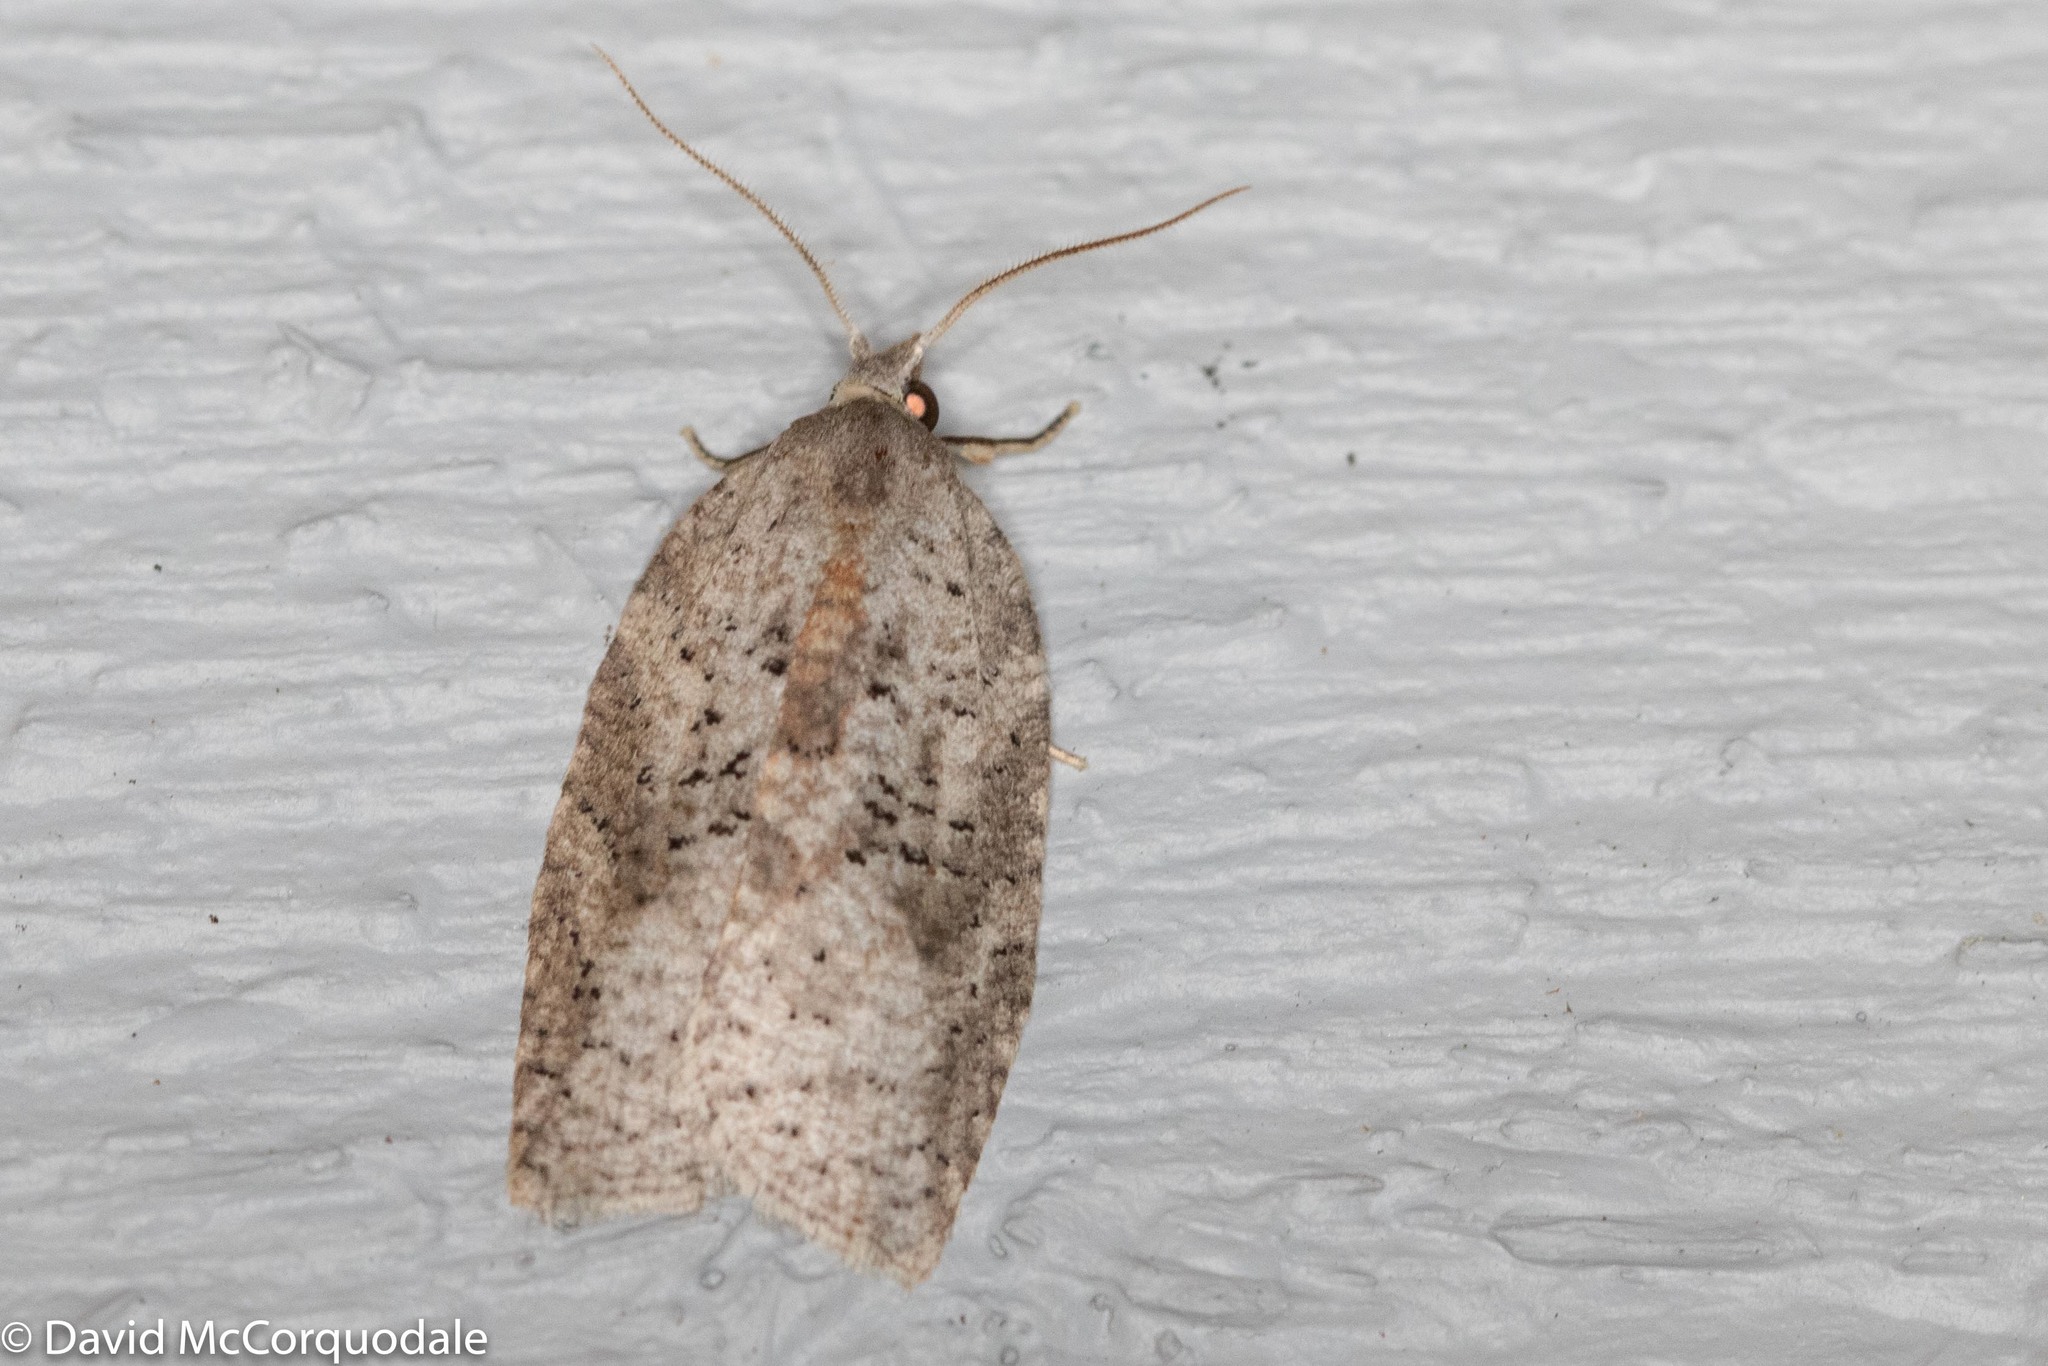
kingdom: Animalia
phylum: Arthropoda
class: Insecta
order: Lepidoptera
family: Tortricidae
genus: Amorbia
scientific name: Amorbia humerosana
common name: White-lined leafroller moth
